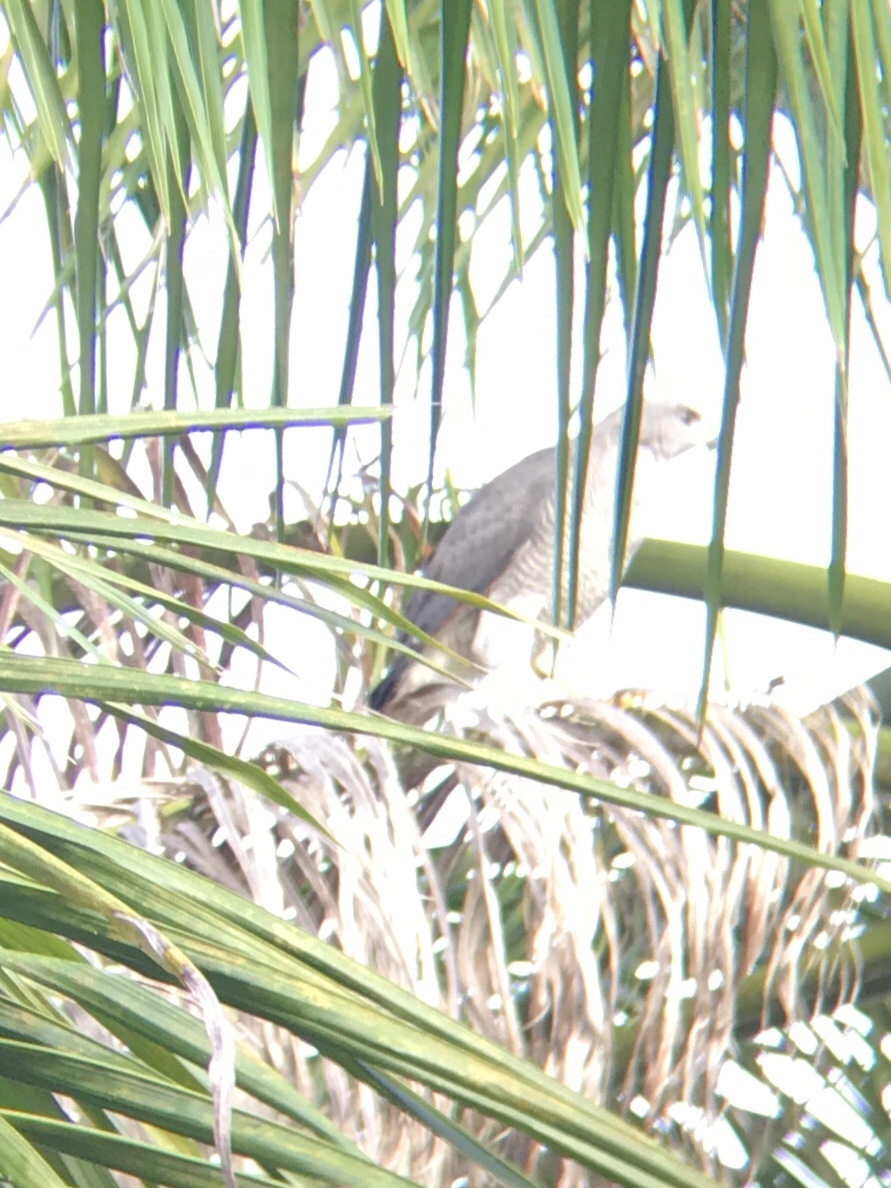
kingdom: Animalia
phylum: Chordata
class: Aves
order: Accipitriformes
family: Accipitridae
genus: Buteo
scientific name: Buteo nitidus
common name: Grey-lined hawk
